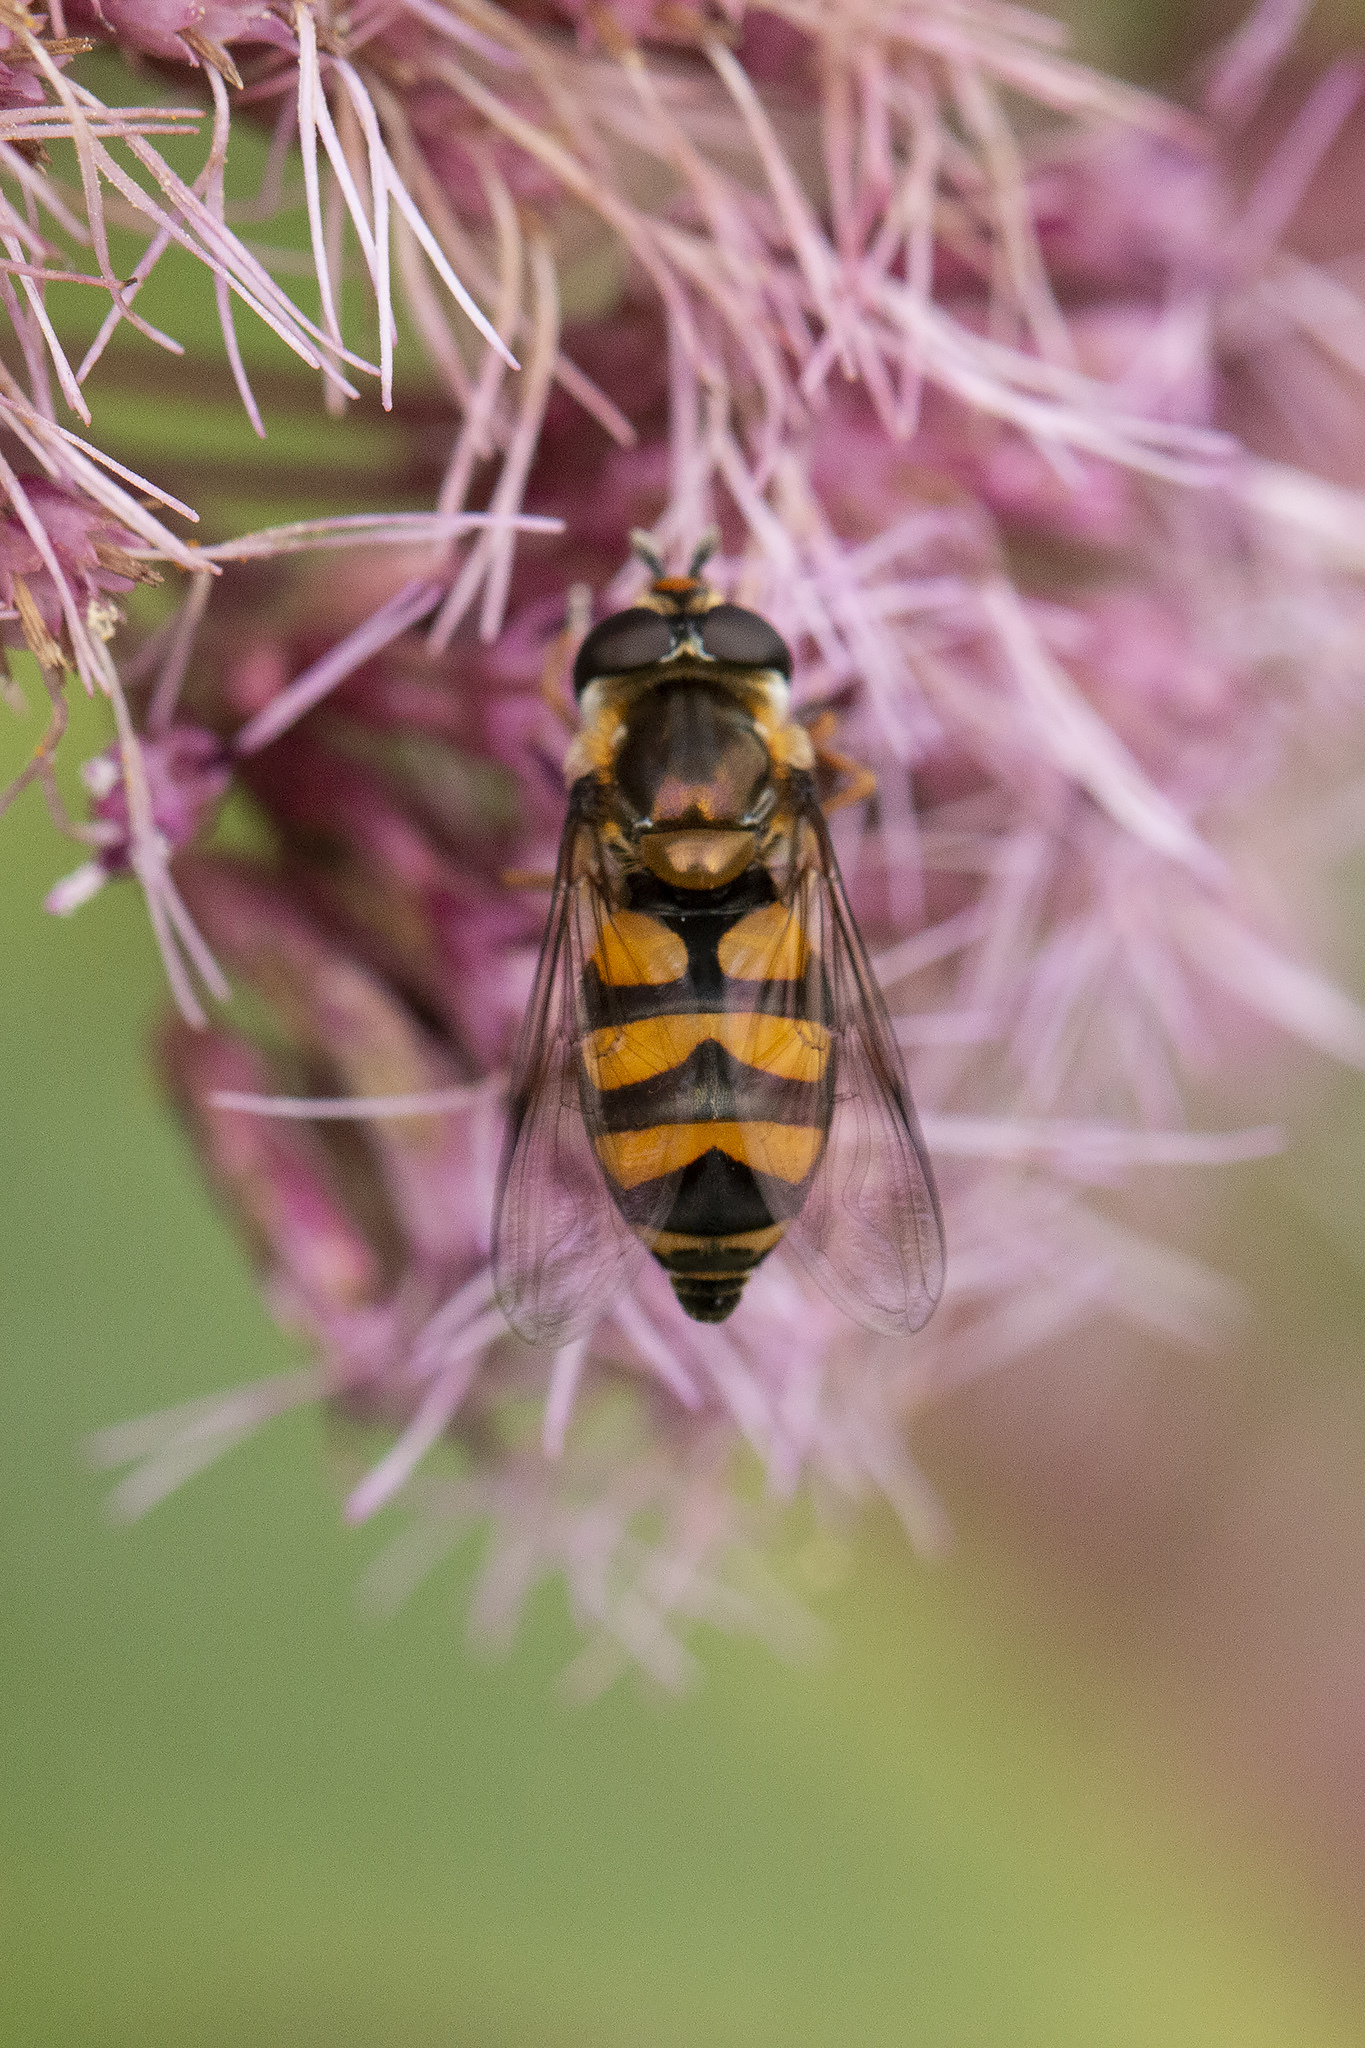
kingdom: Animalia
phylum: Arthropoda
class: Insecta
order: Diptera
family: Syrphidae
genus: Didea
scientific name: Didea fasciata
